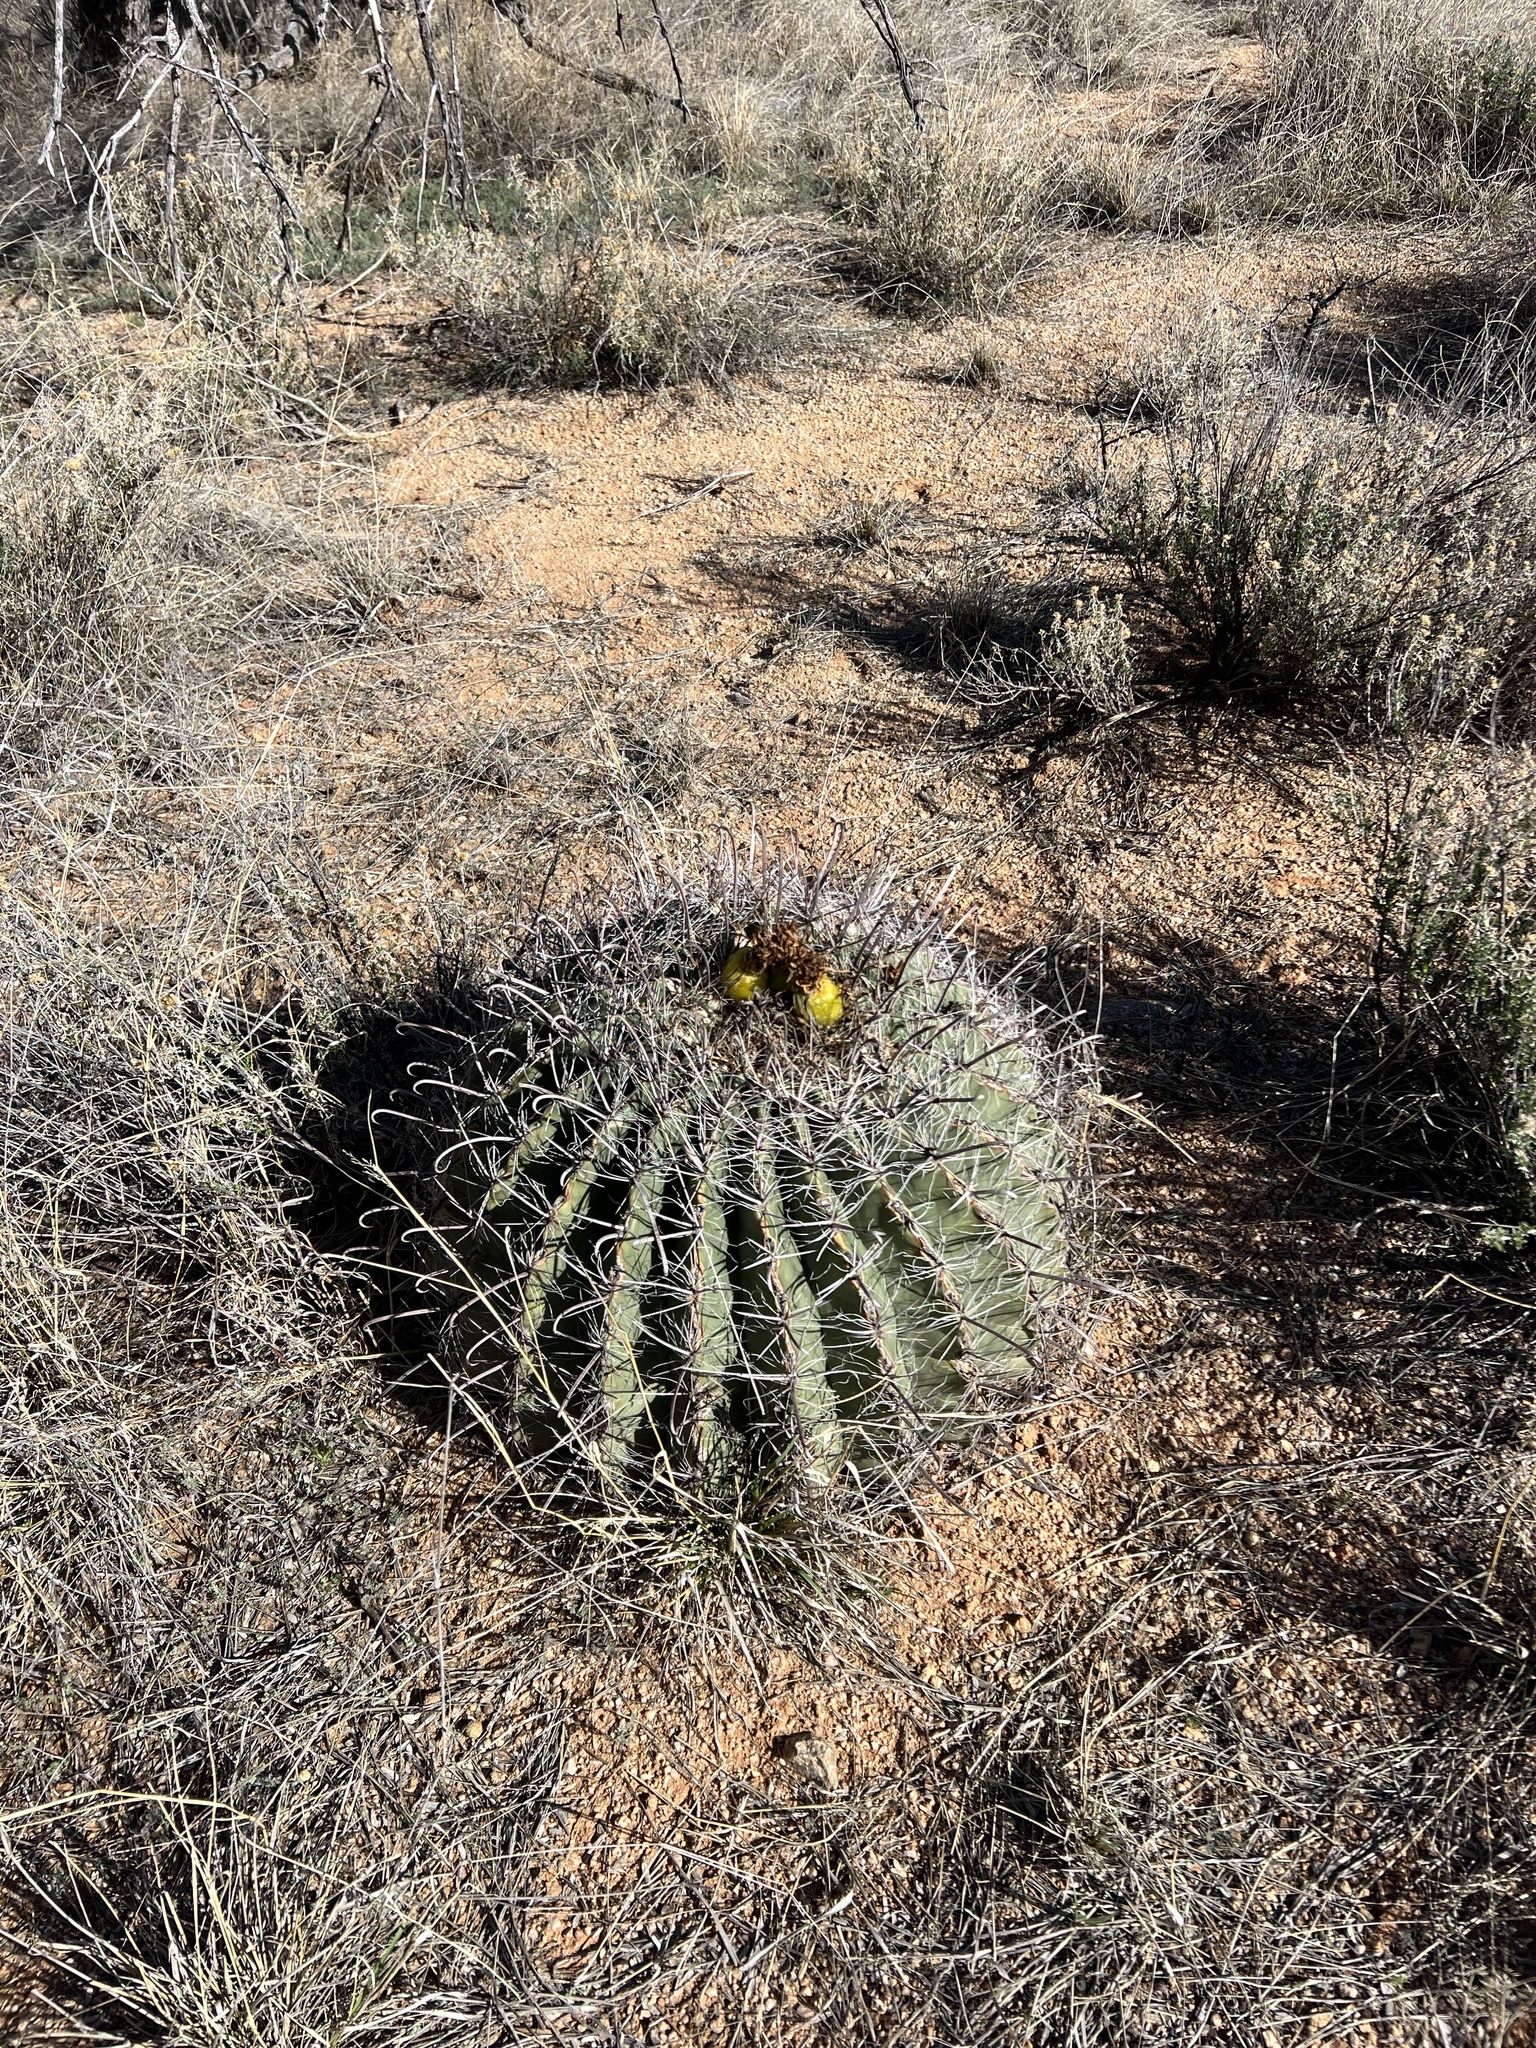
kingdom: Plantae
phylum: Tracheophyta
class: Magnoliopsida
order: Caryophyllales
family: Cactaceae
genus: Ferocactus
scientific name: Ferocactus wislizeni
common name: Candy barrel cactus
